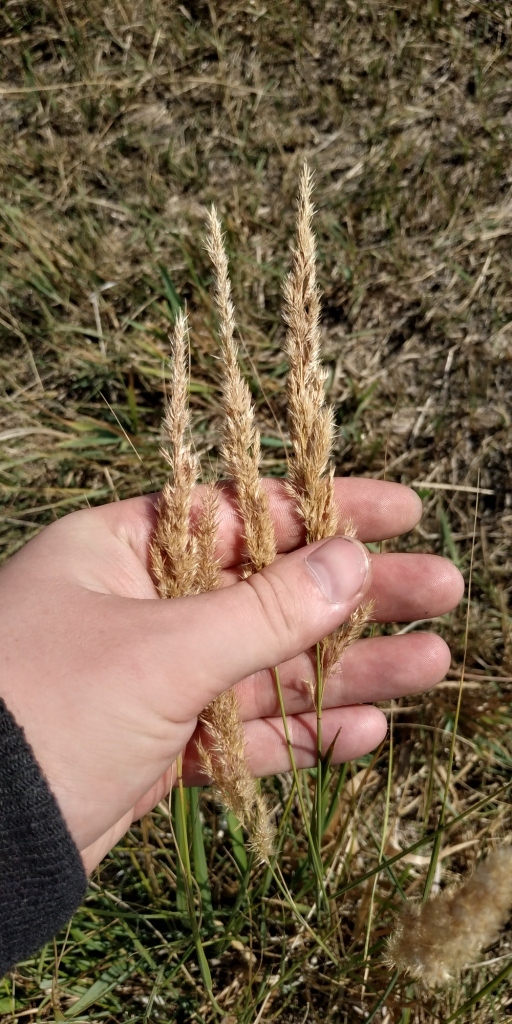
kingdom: Plantae
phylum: Tracheophyta
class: Liliopsida
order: Poales
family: Poaceae
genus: Calamagrostis
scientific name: Calamagrostis epigejos
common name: Wood small-reed
